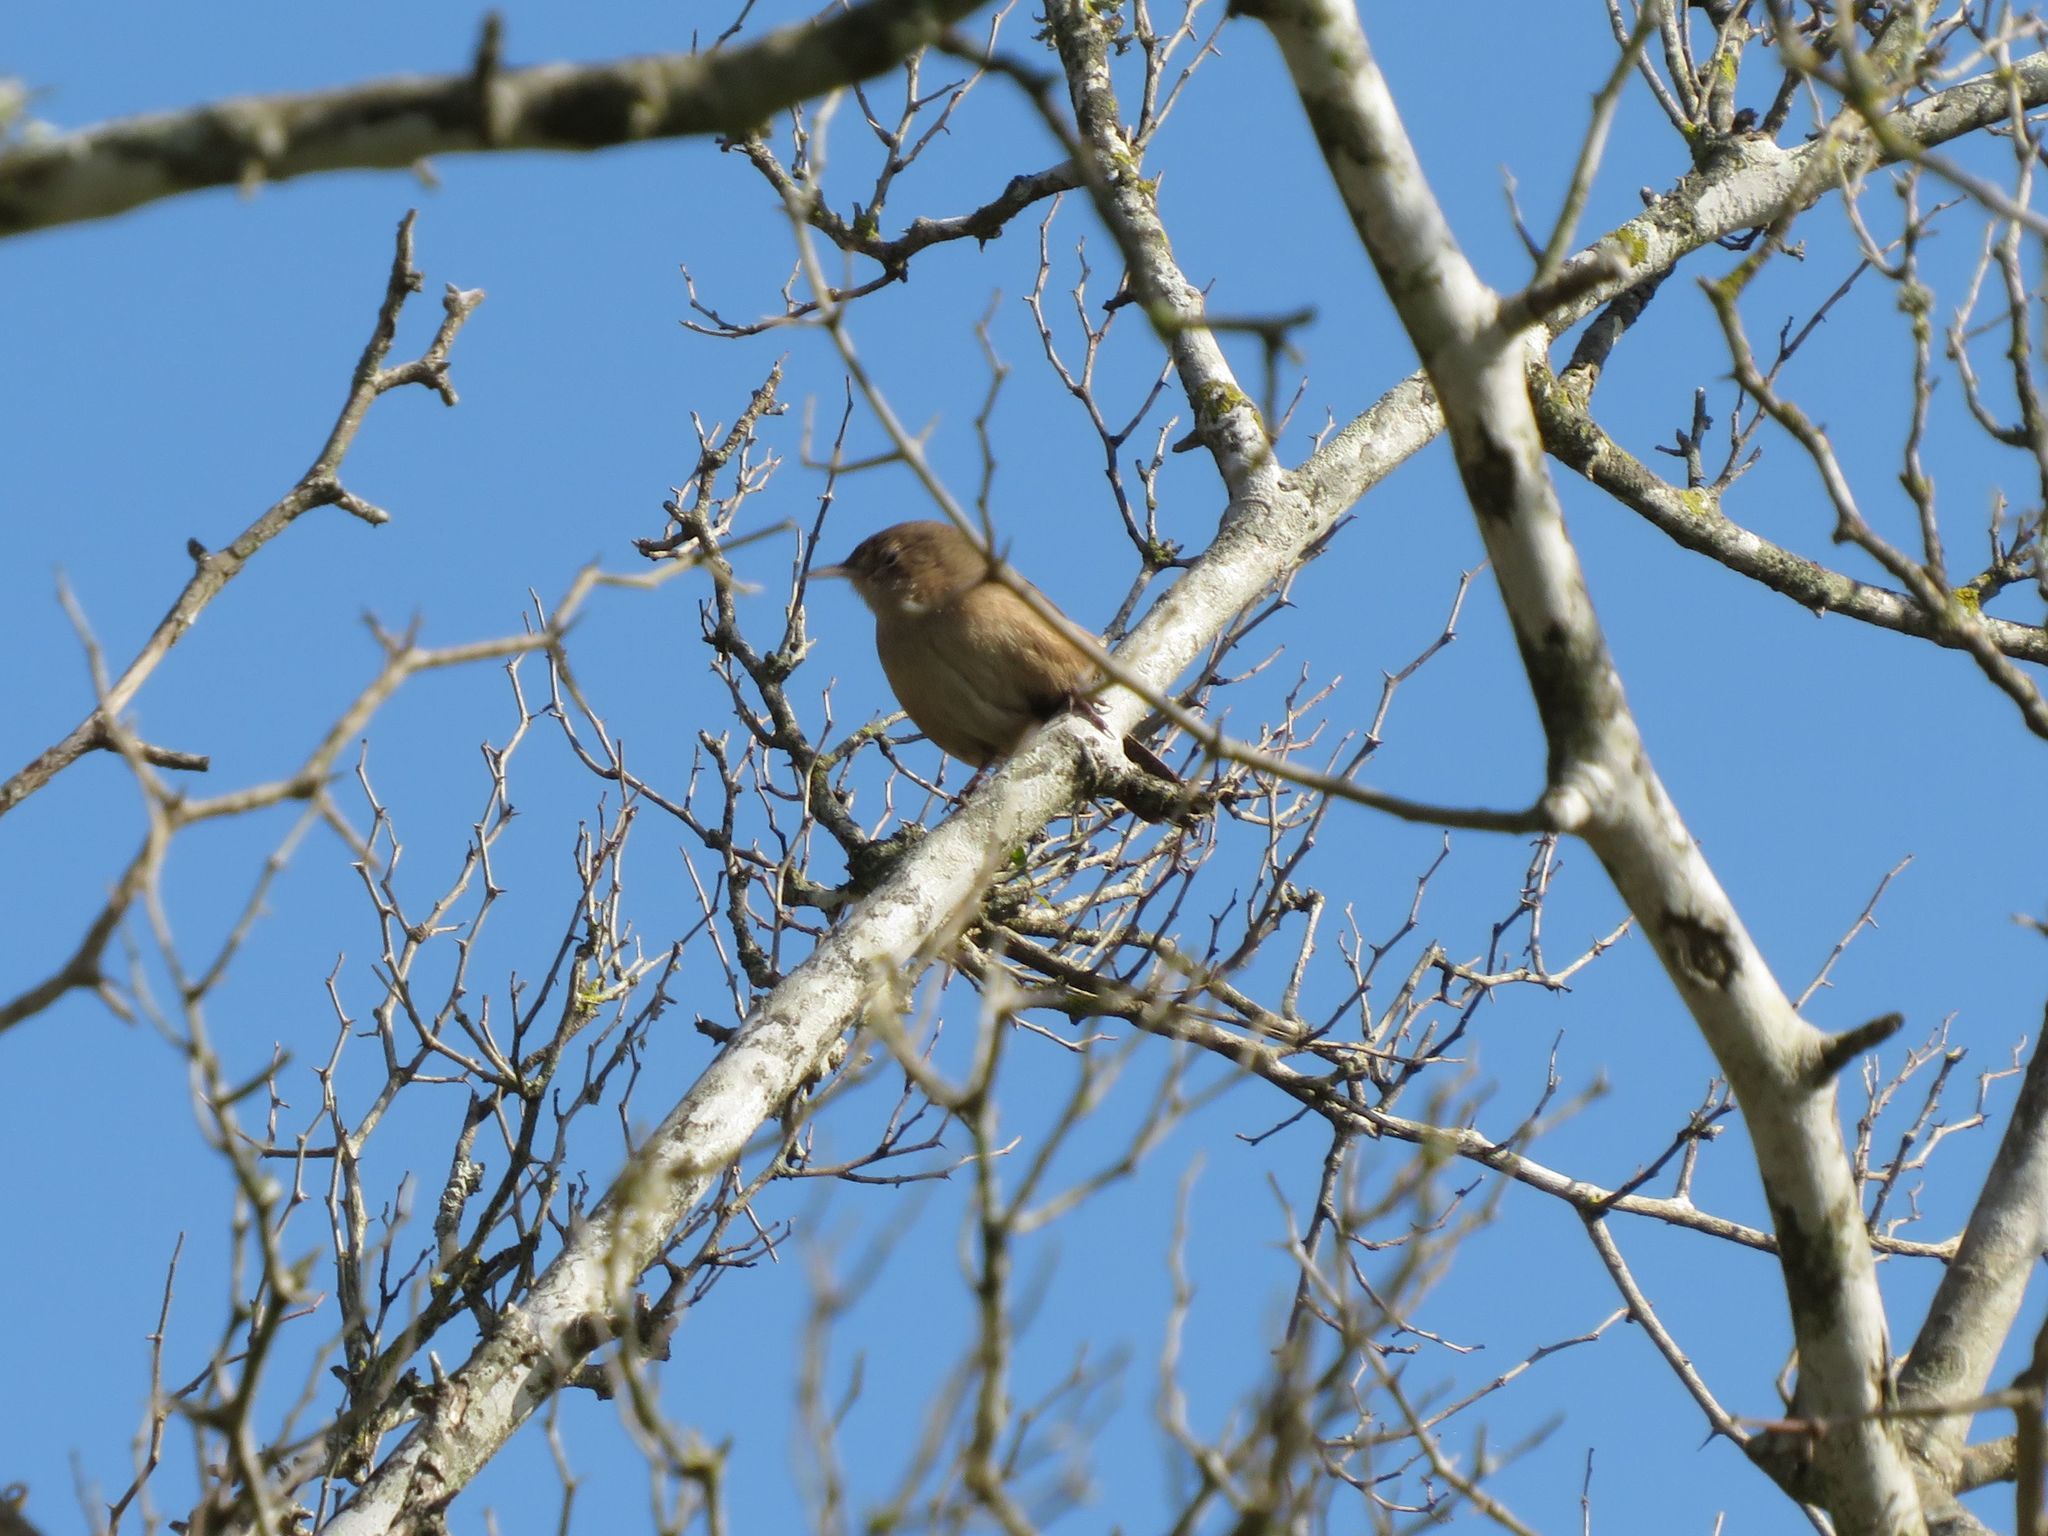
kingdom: Animalia
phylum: Chordata
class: Aves
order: Passeriformes
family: Troglodytidae
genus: Troglodytes
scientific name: Troglodytes aedon
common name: House wren
